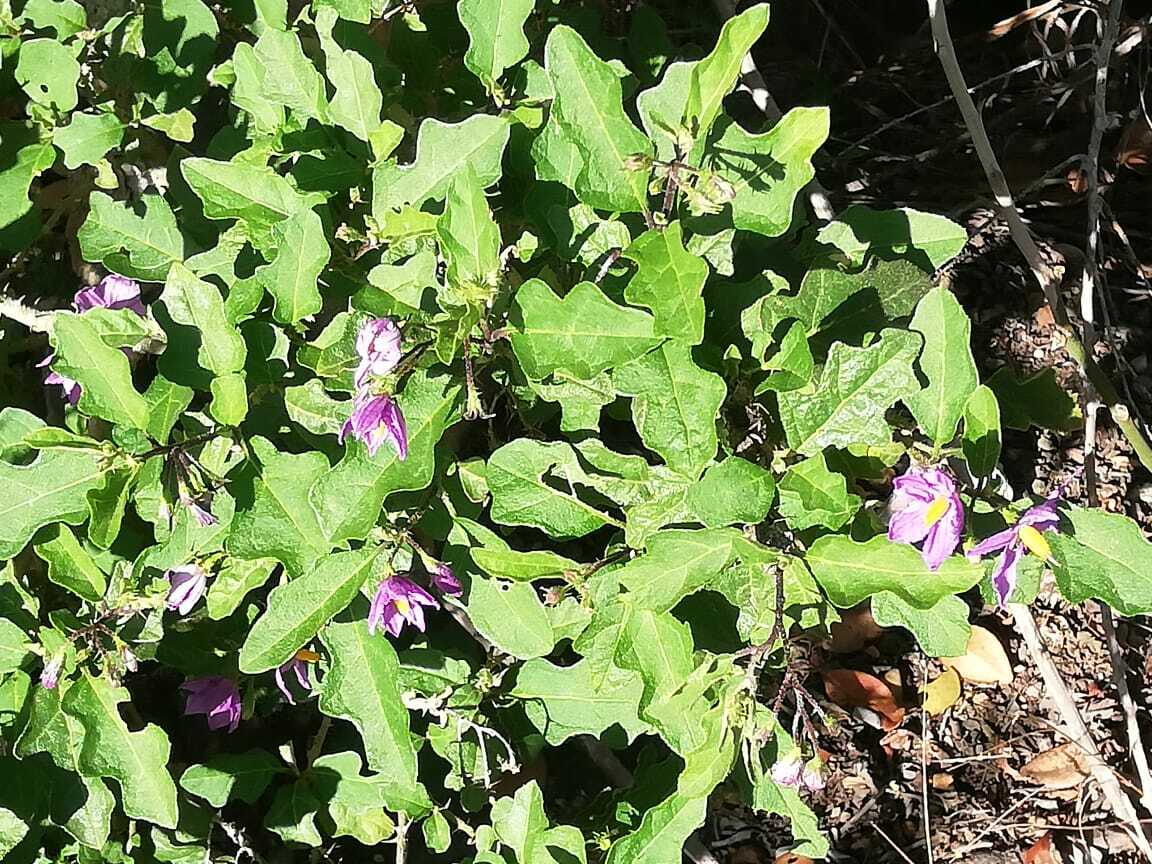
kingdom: Plantae
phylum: Tracheophyta
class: Magnoliopsida
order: Solanales
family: Solanaceae
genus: Solanum
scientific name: Solanum rubetorum
